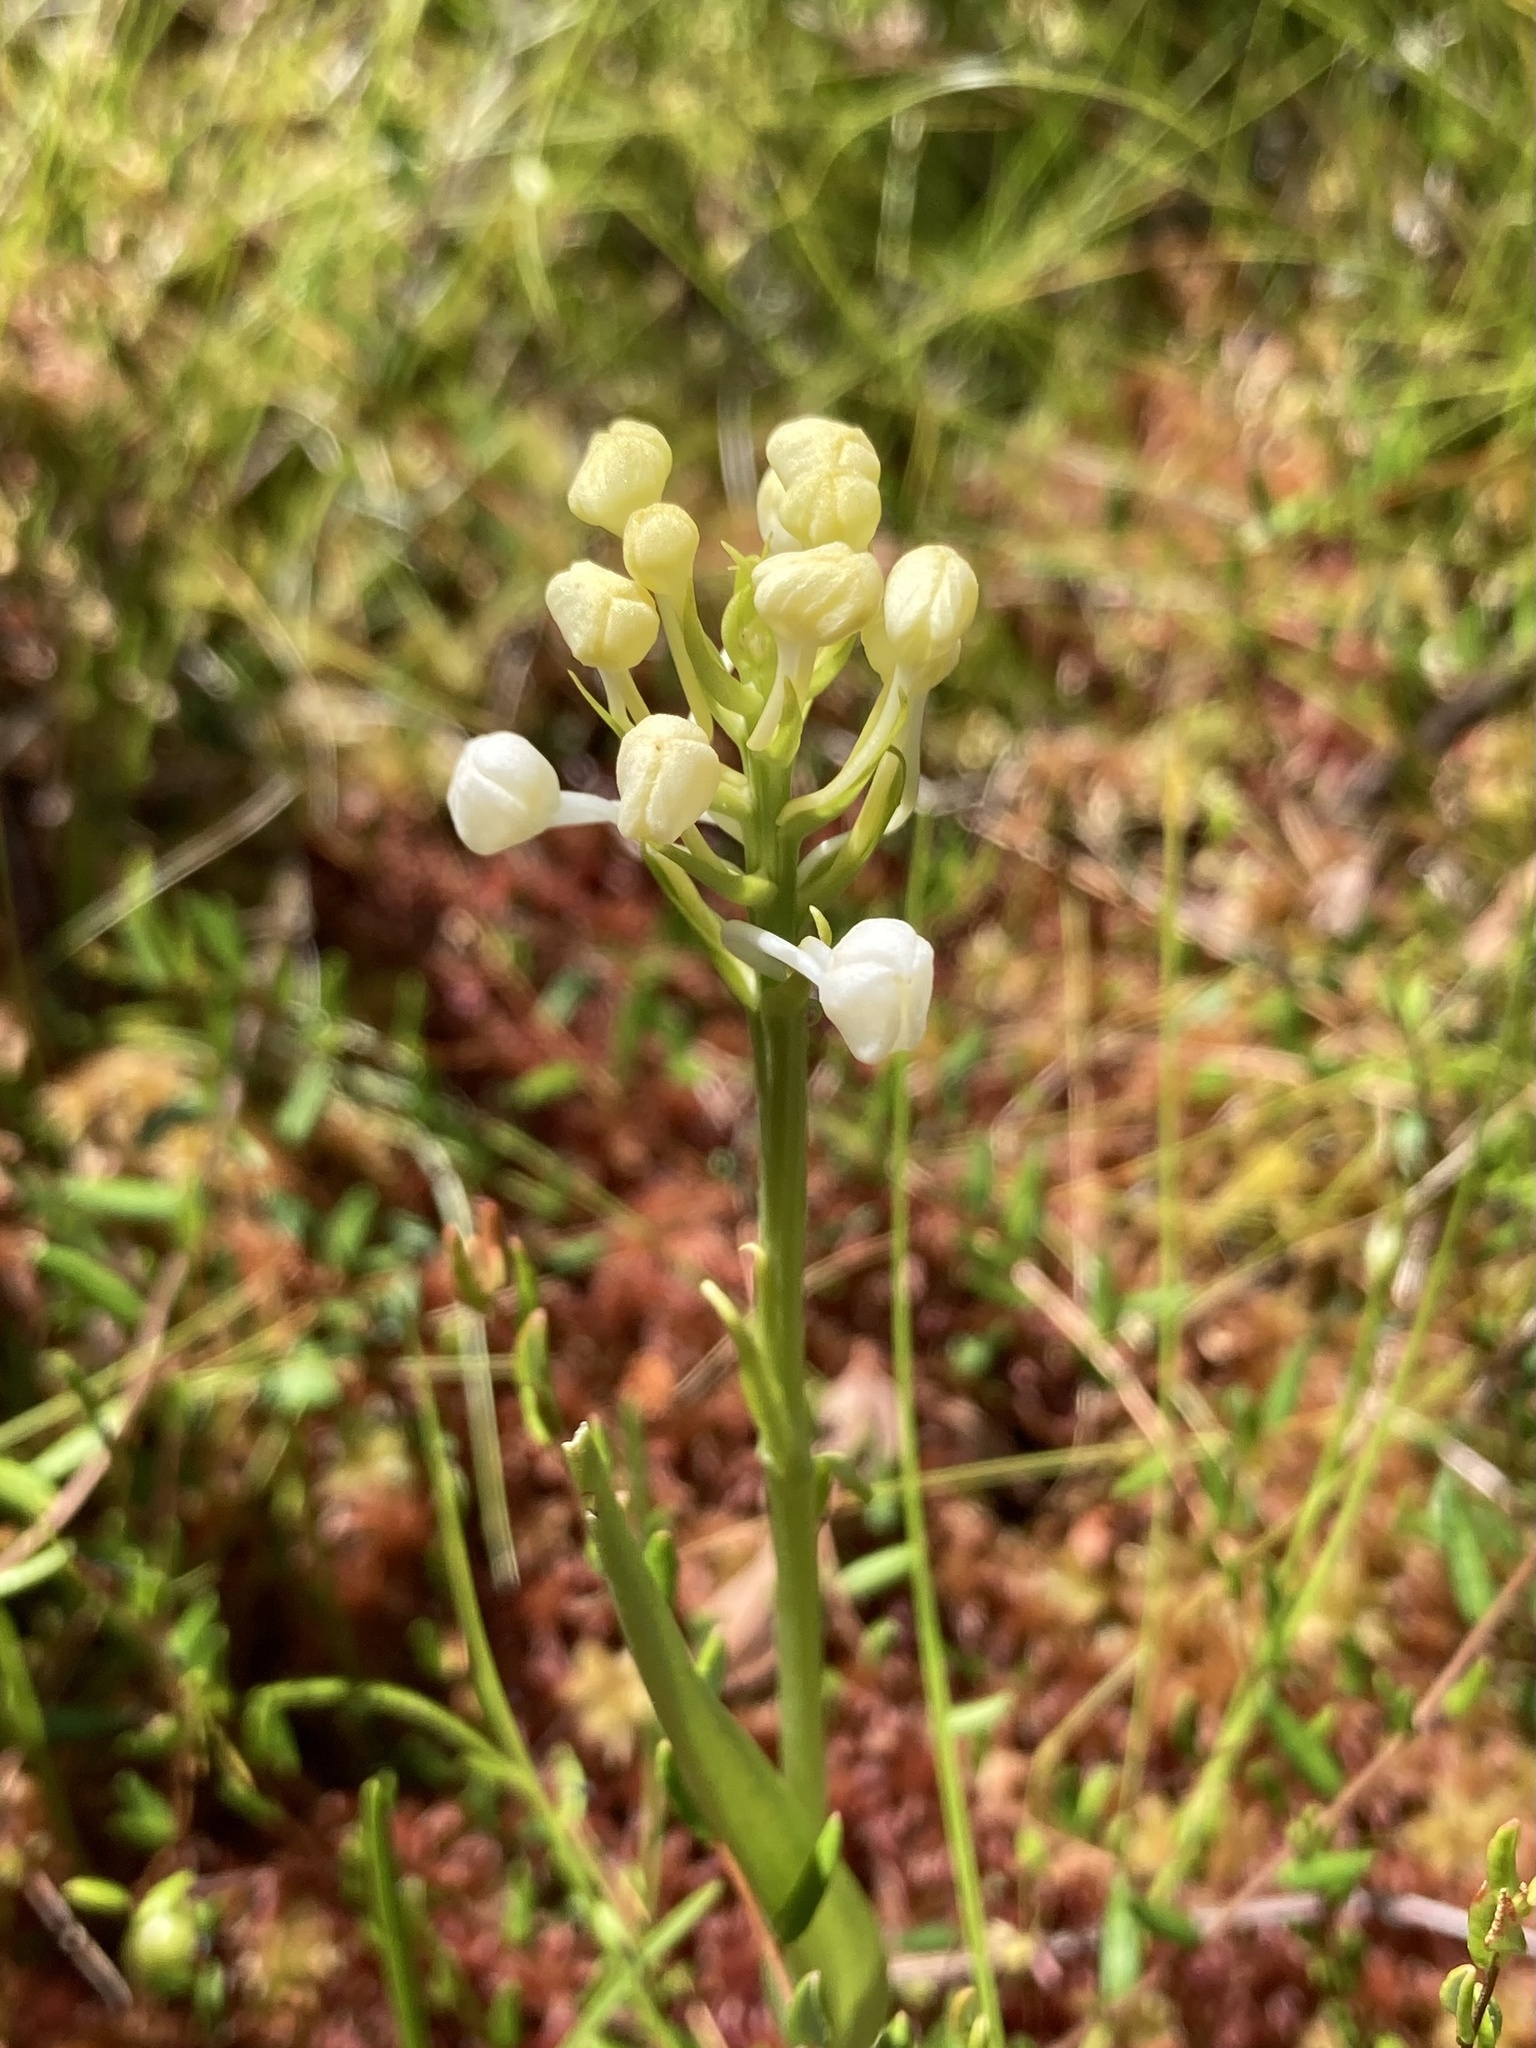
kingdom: Plantae
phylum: Tracheophyta
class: Liliopsida
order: Asparagales
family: Orchidaceae
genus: Platanthera
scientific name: Platanthera blephariglottis
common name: White fringed orchid
